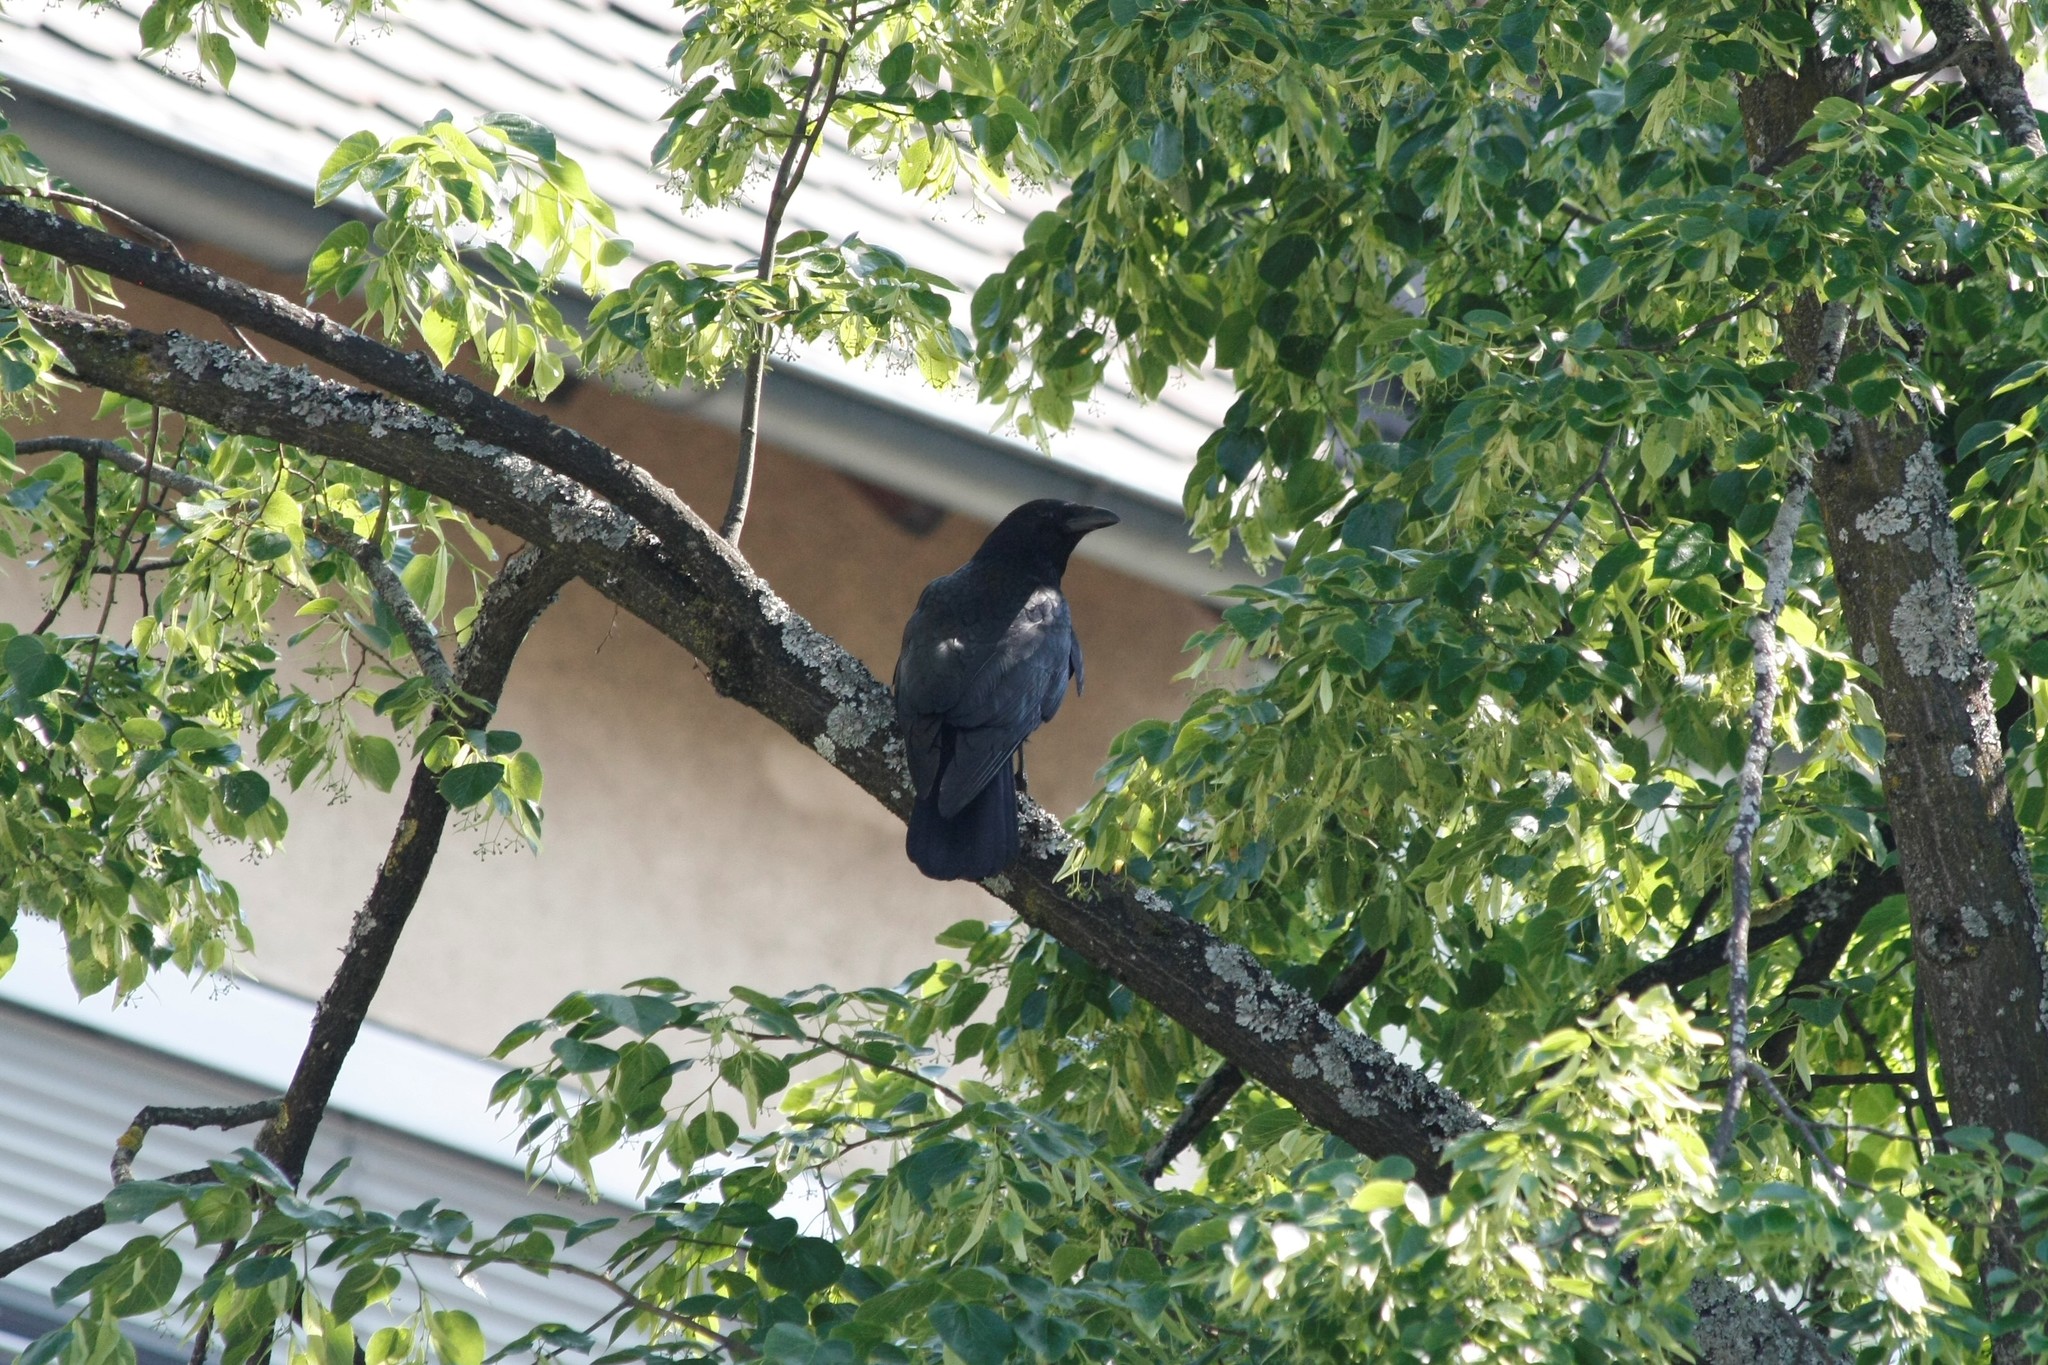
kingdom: Animalia
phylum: Chordata
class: Aves
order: Passeriformes
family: Corvidae
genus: Corvus
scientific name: Corvus corone
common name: Carrion crow
